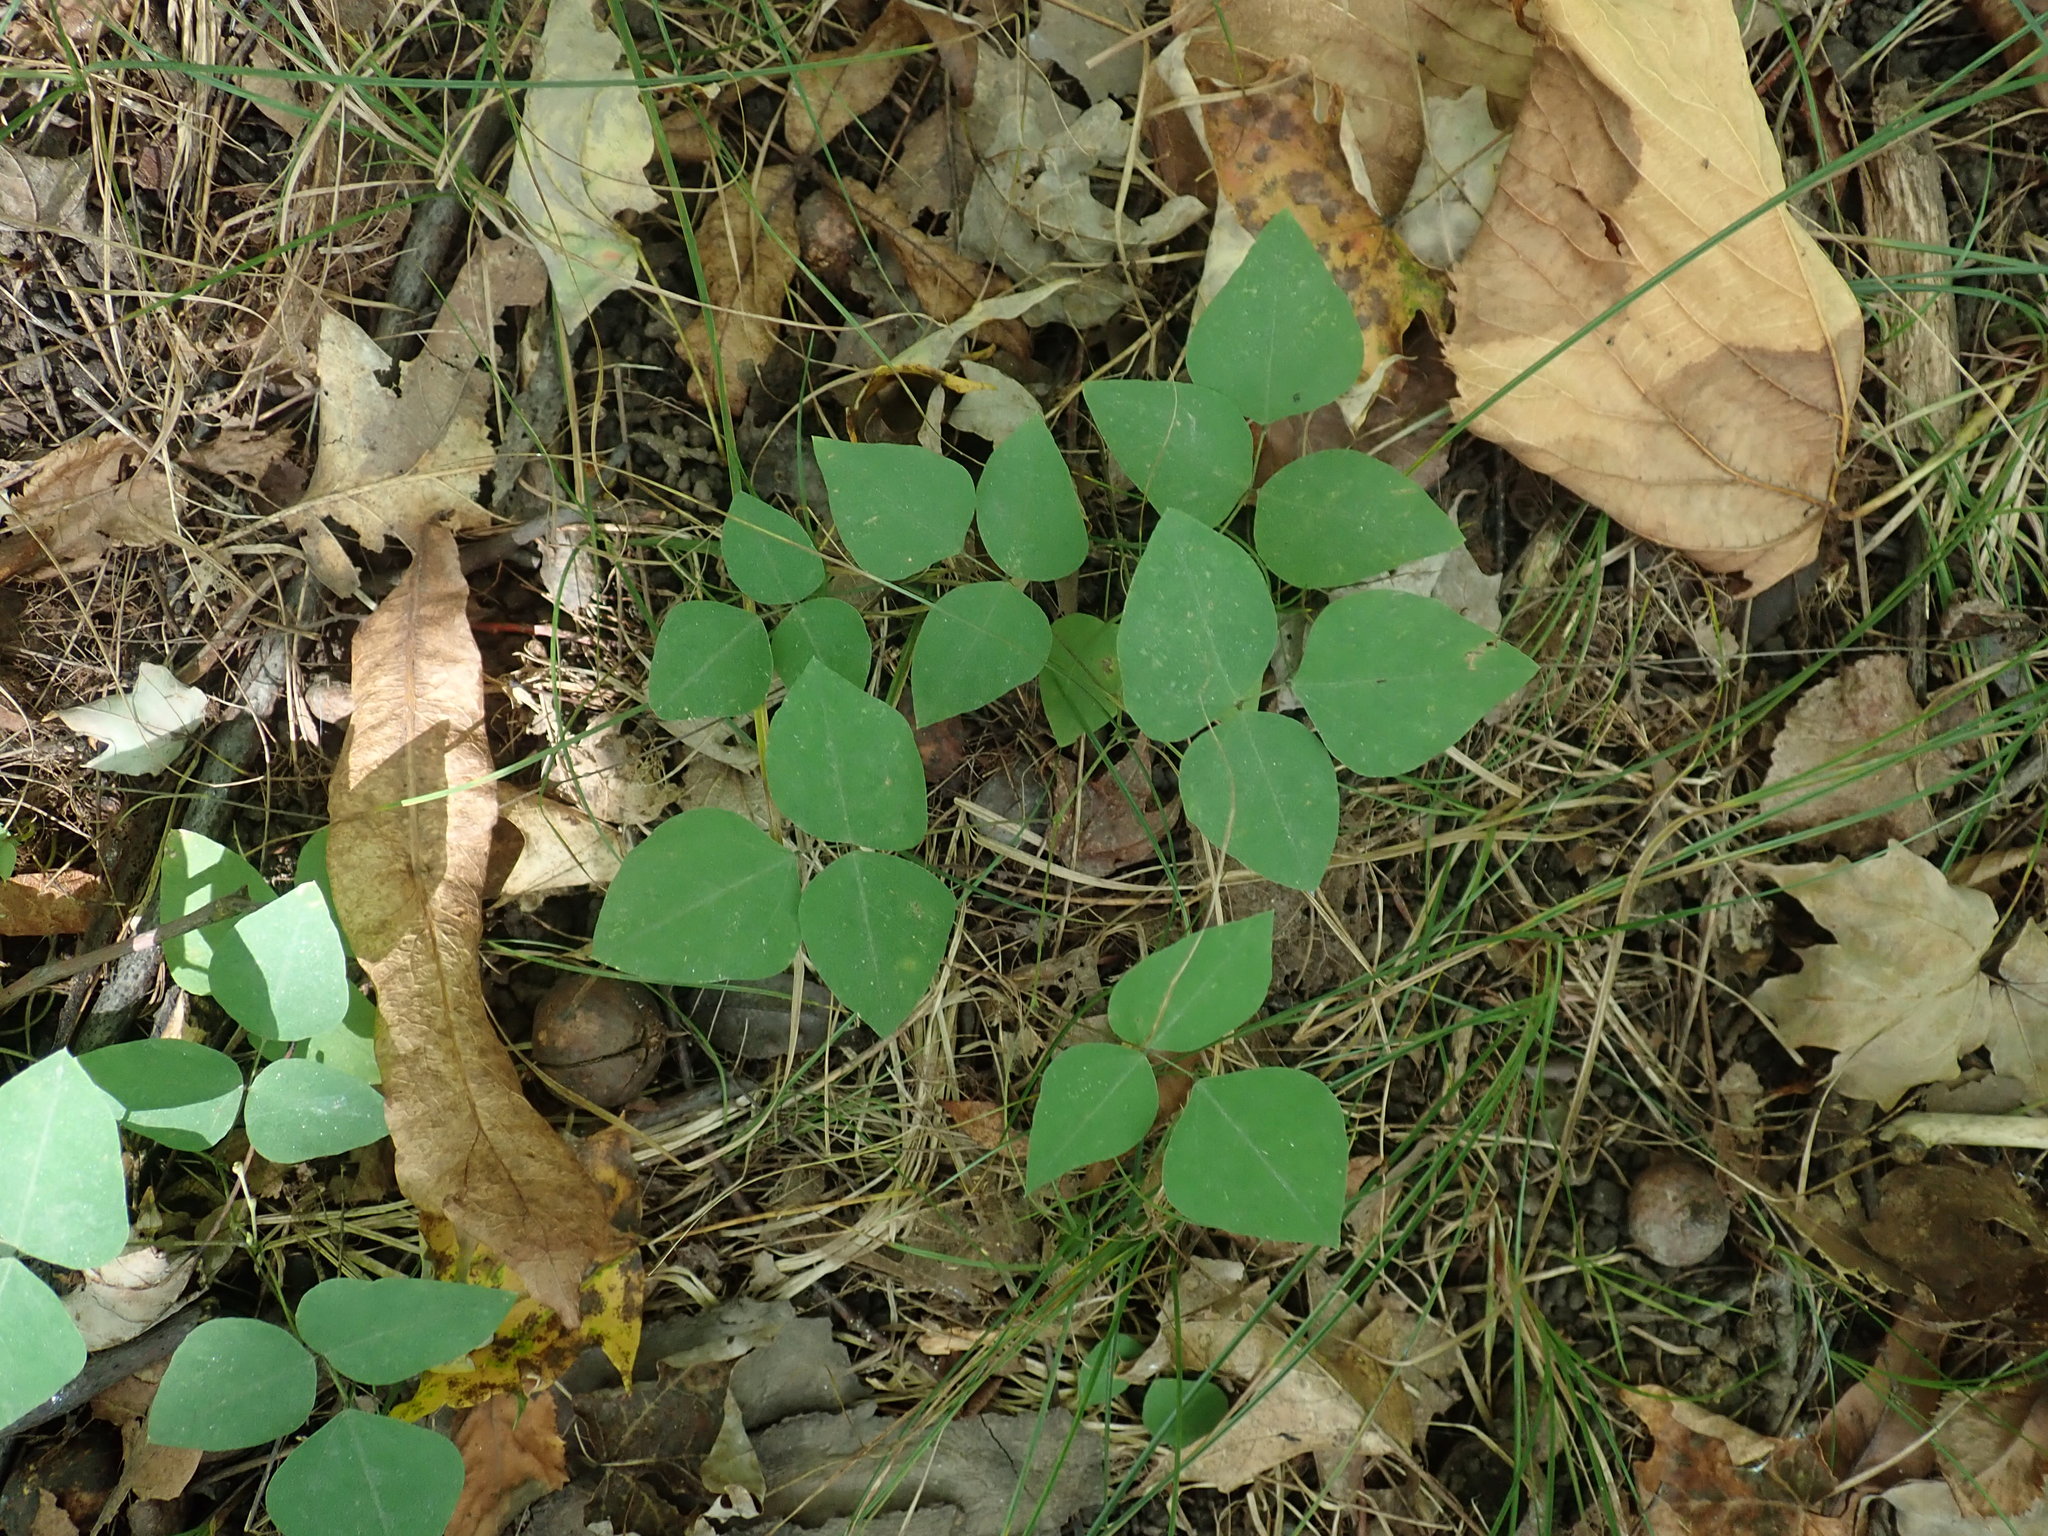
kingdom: Plantae
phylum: Tracheophyta
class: Magnoliopsida
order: Fabales
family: Fabaceae
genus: Amphicarpaea
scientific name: Amphicarpaea bracteata
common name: American hog peanut
